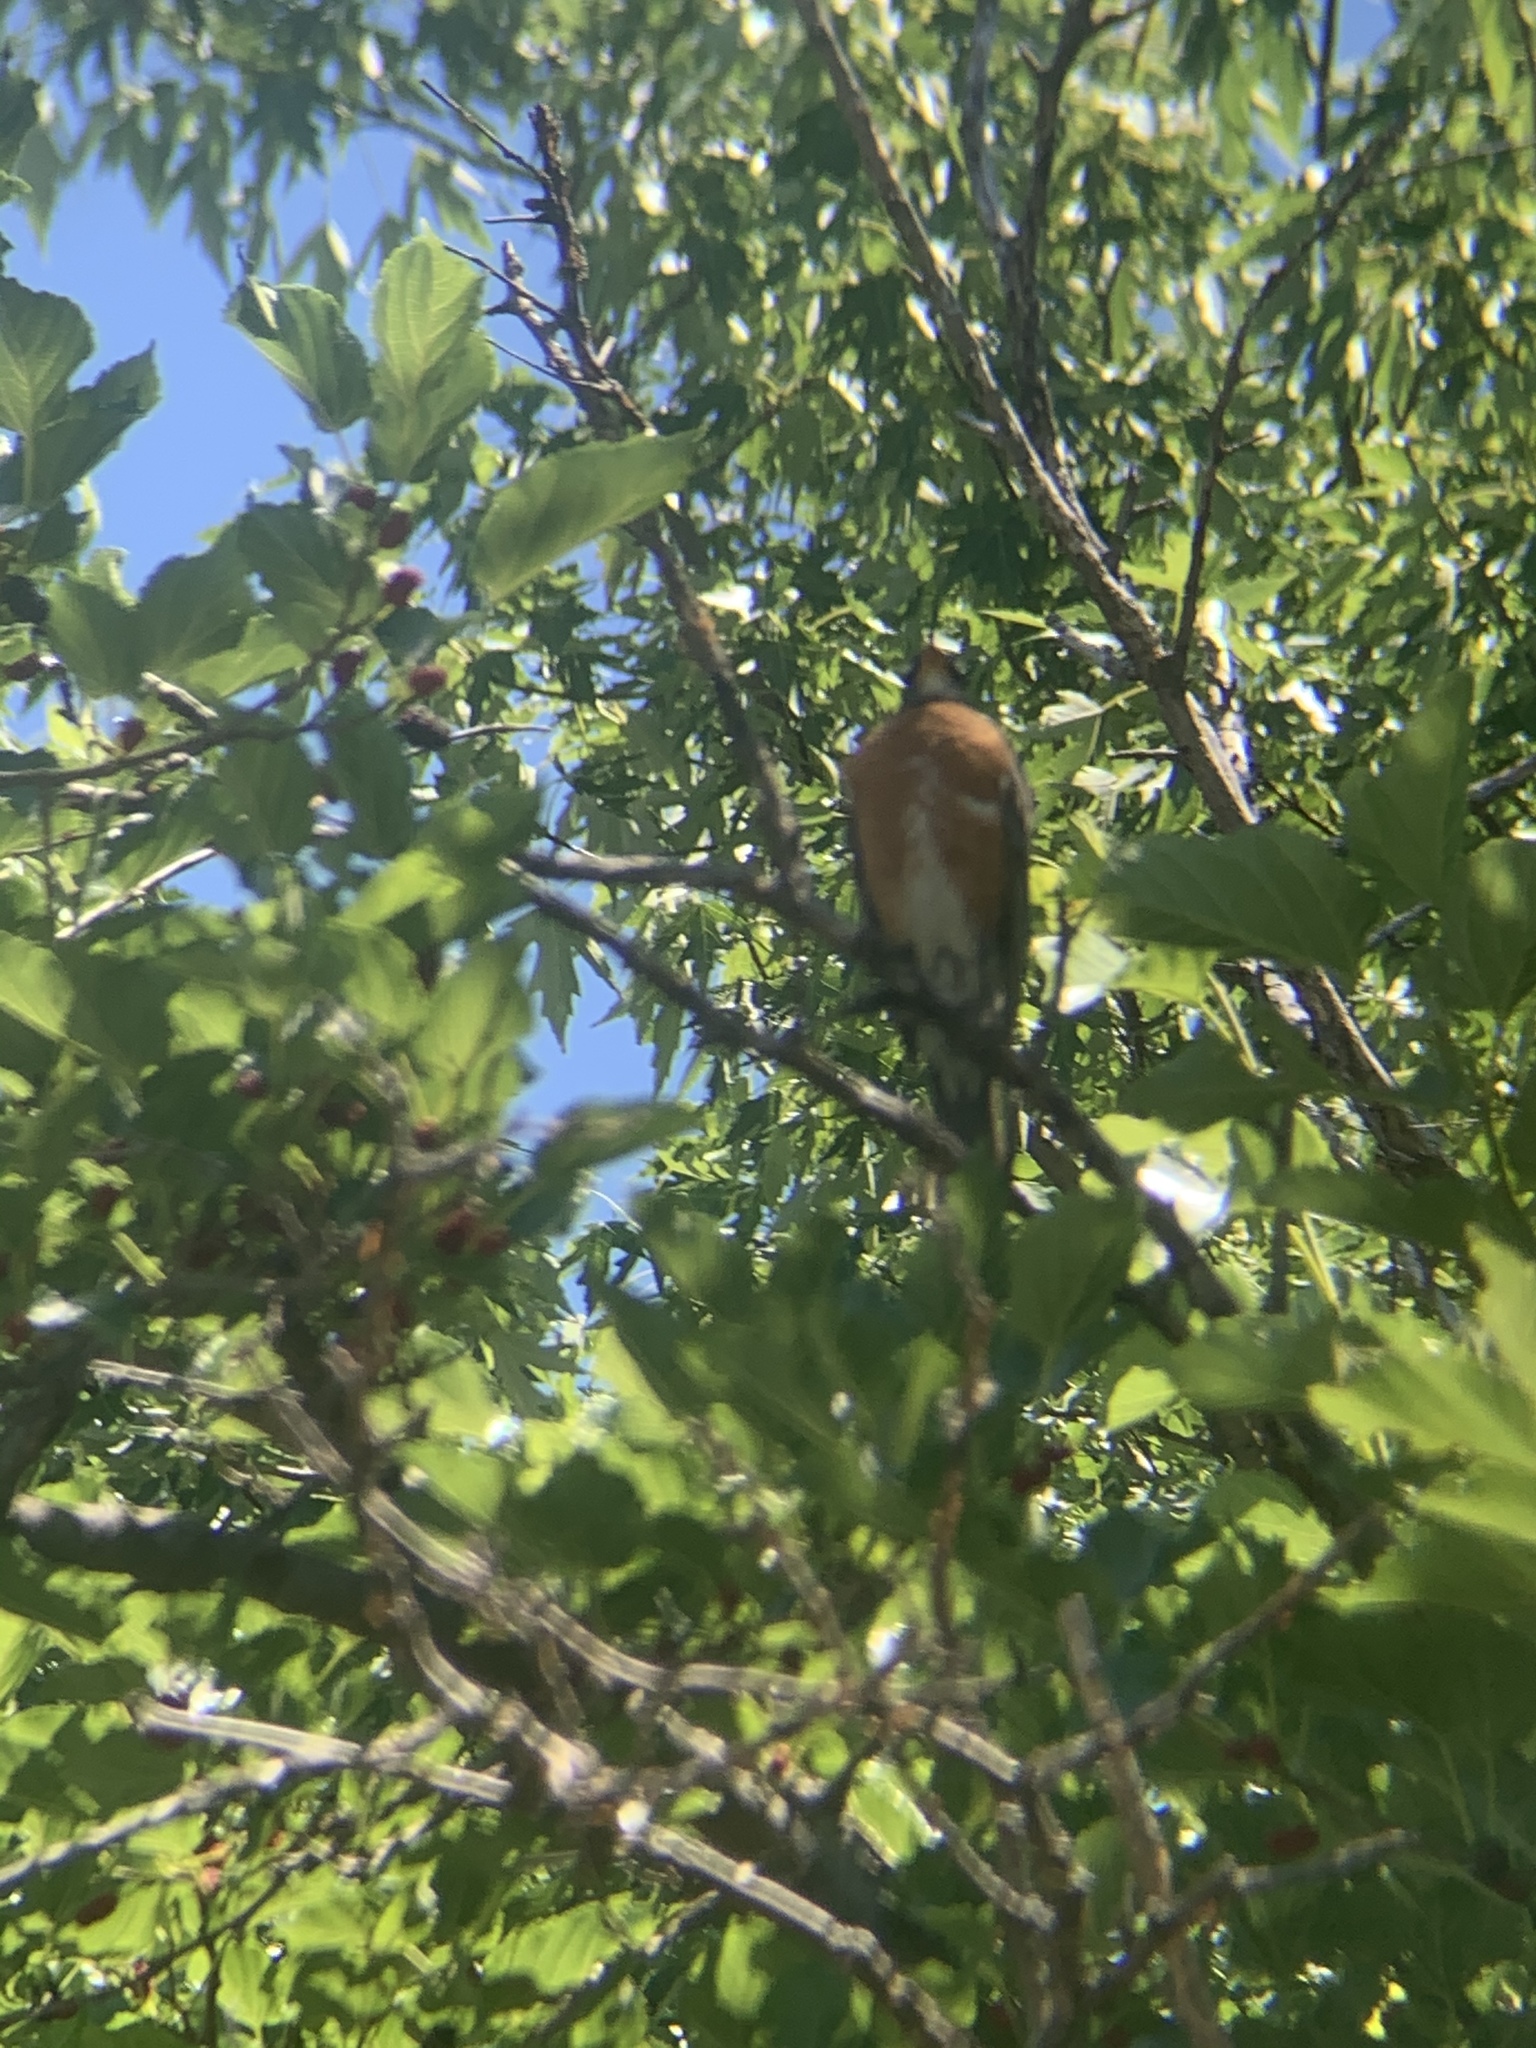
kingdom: Animalia
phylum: Chordata
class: Aves
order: Passeriformes
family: Turdidae
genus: Turdus
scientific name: Turdus migratorius
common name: American robin
